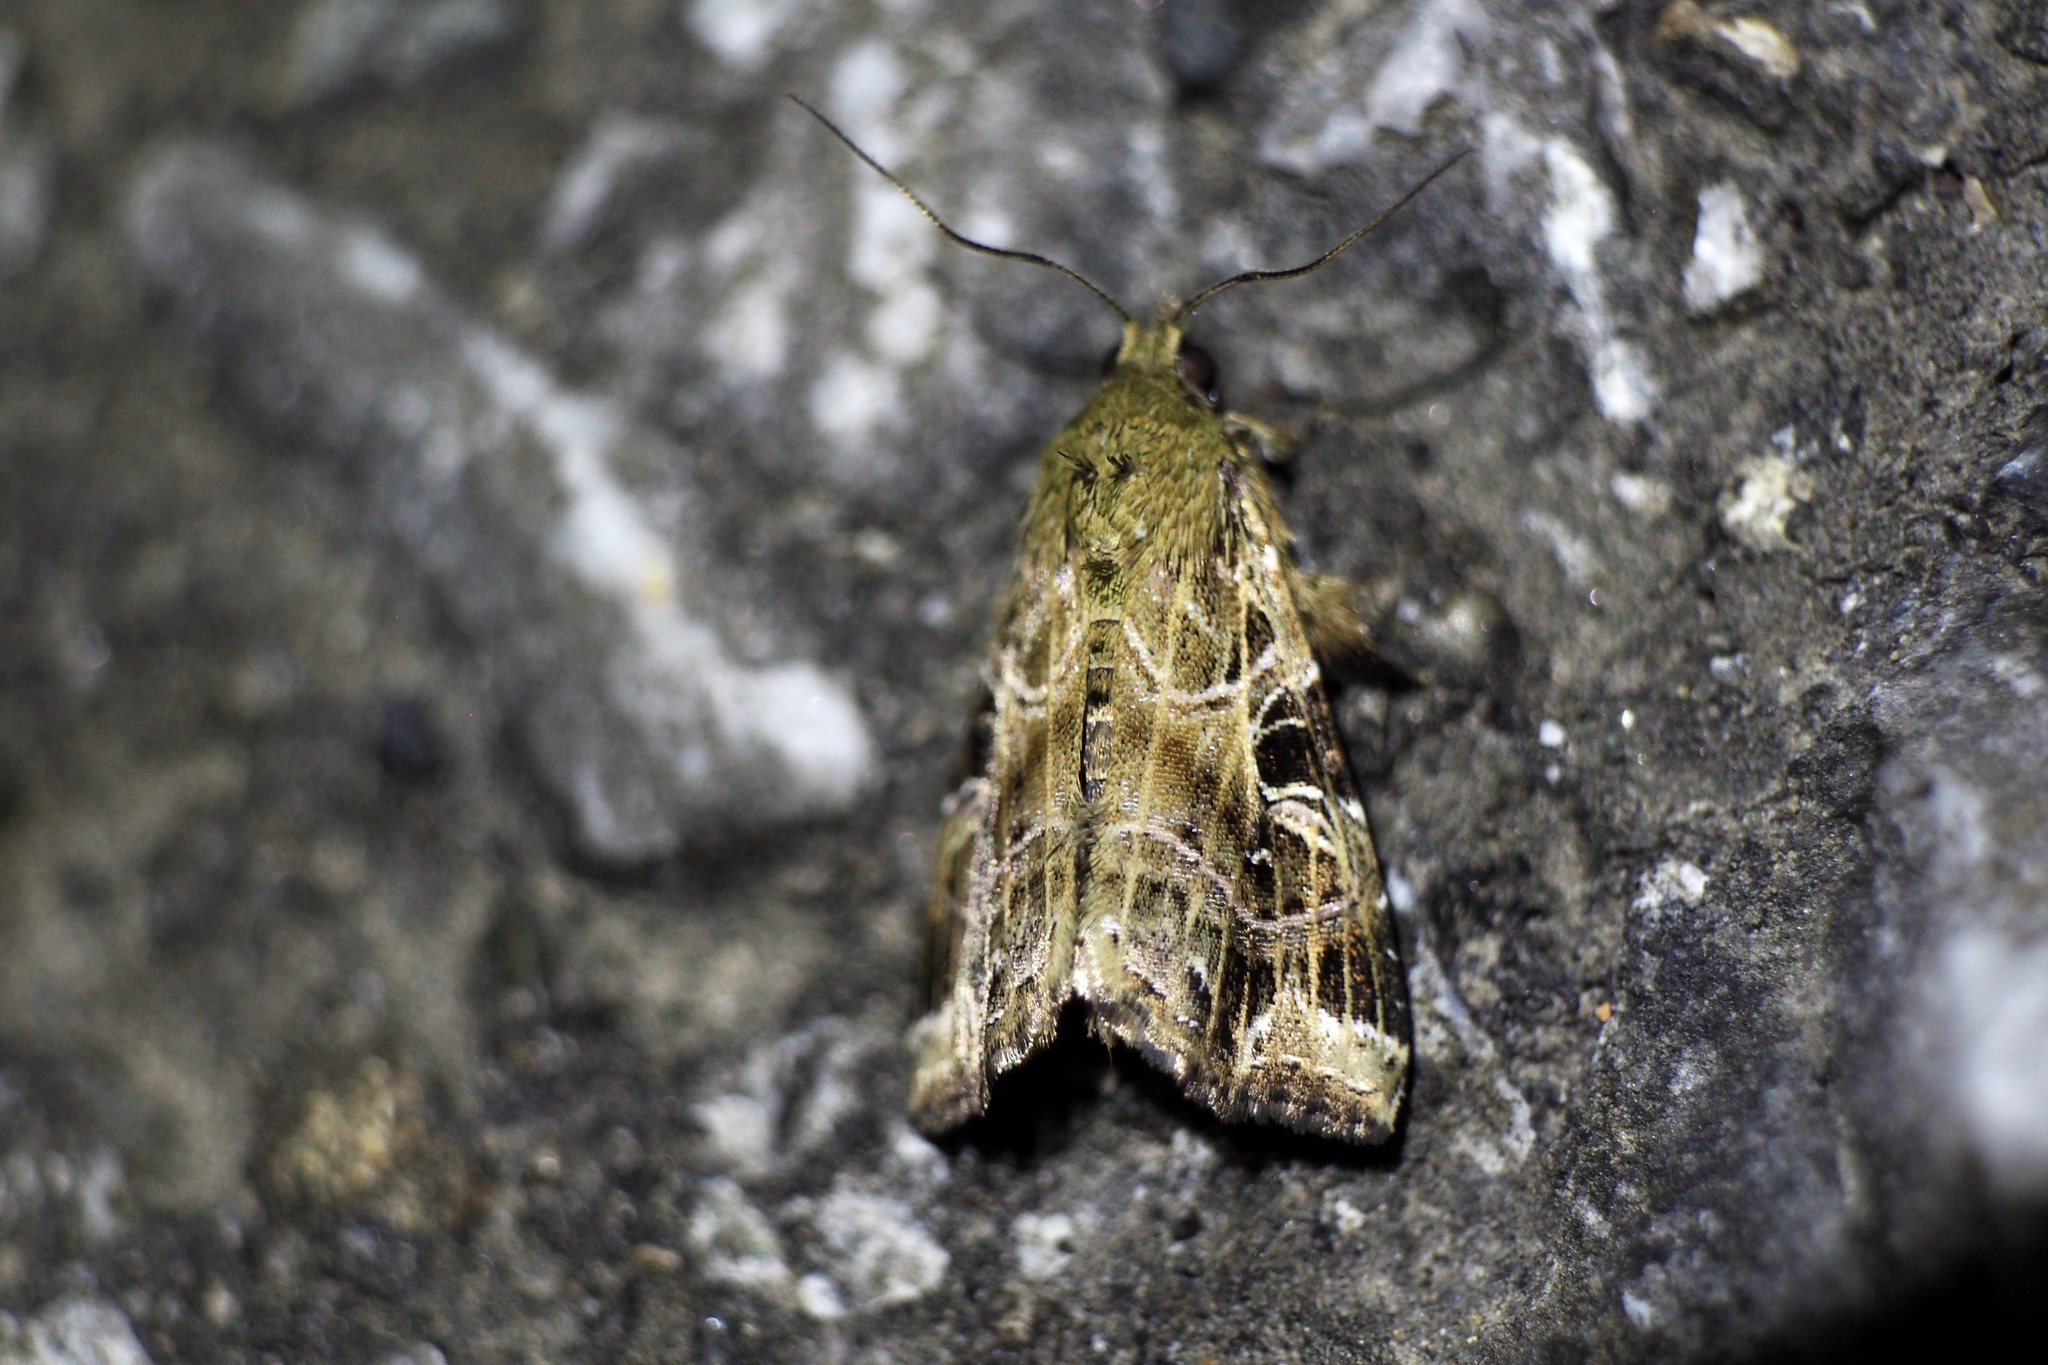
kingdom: Animalia
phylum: Arthropoda
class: Insecta
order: Lepidoptera
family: Noctuidae
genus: Callopistria
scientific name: Callopistria pulchrilinea
